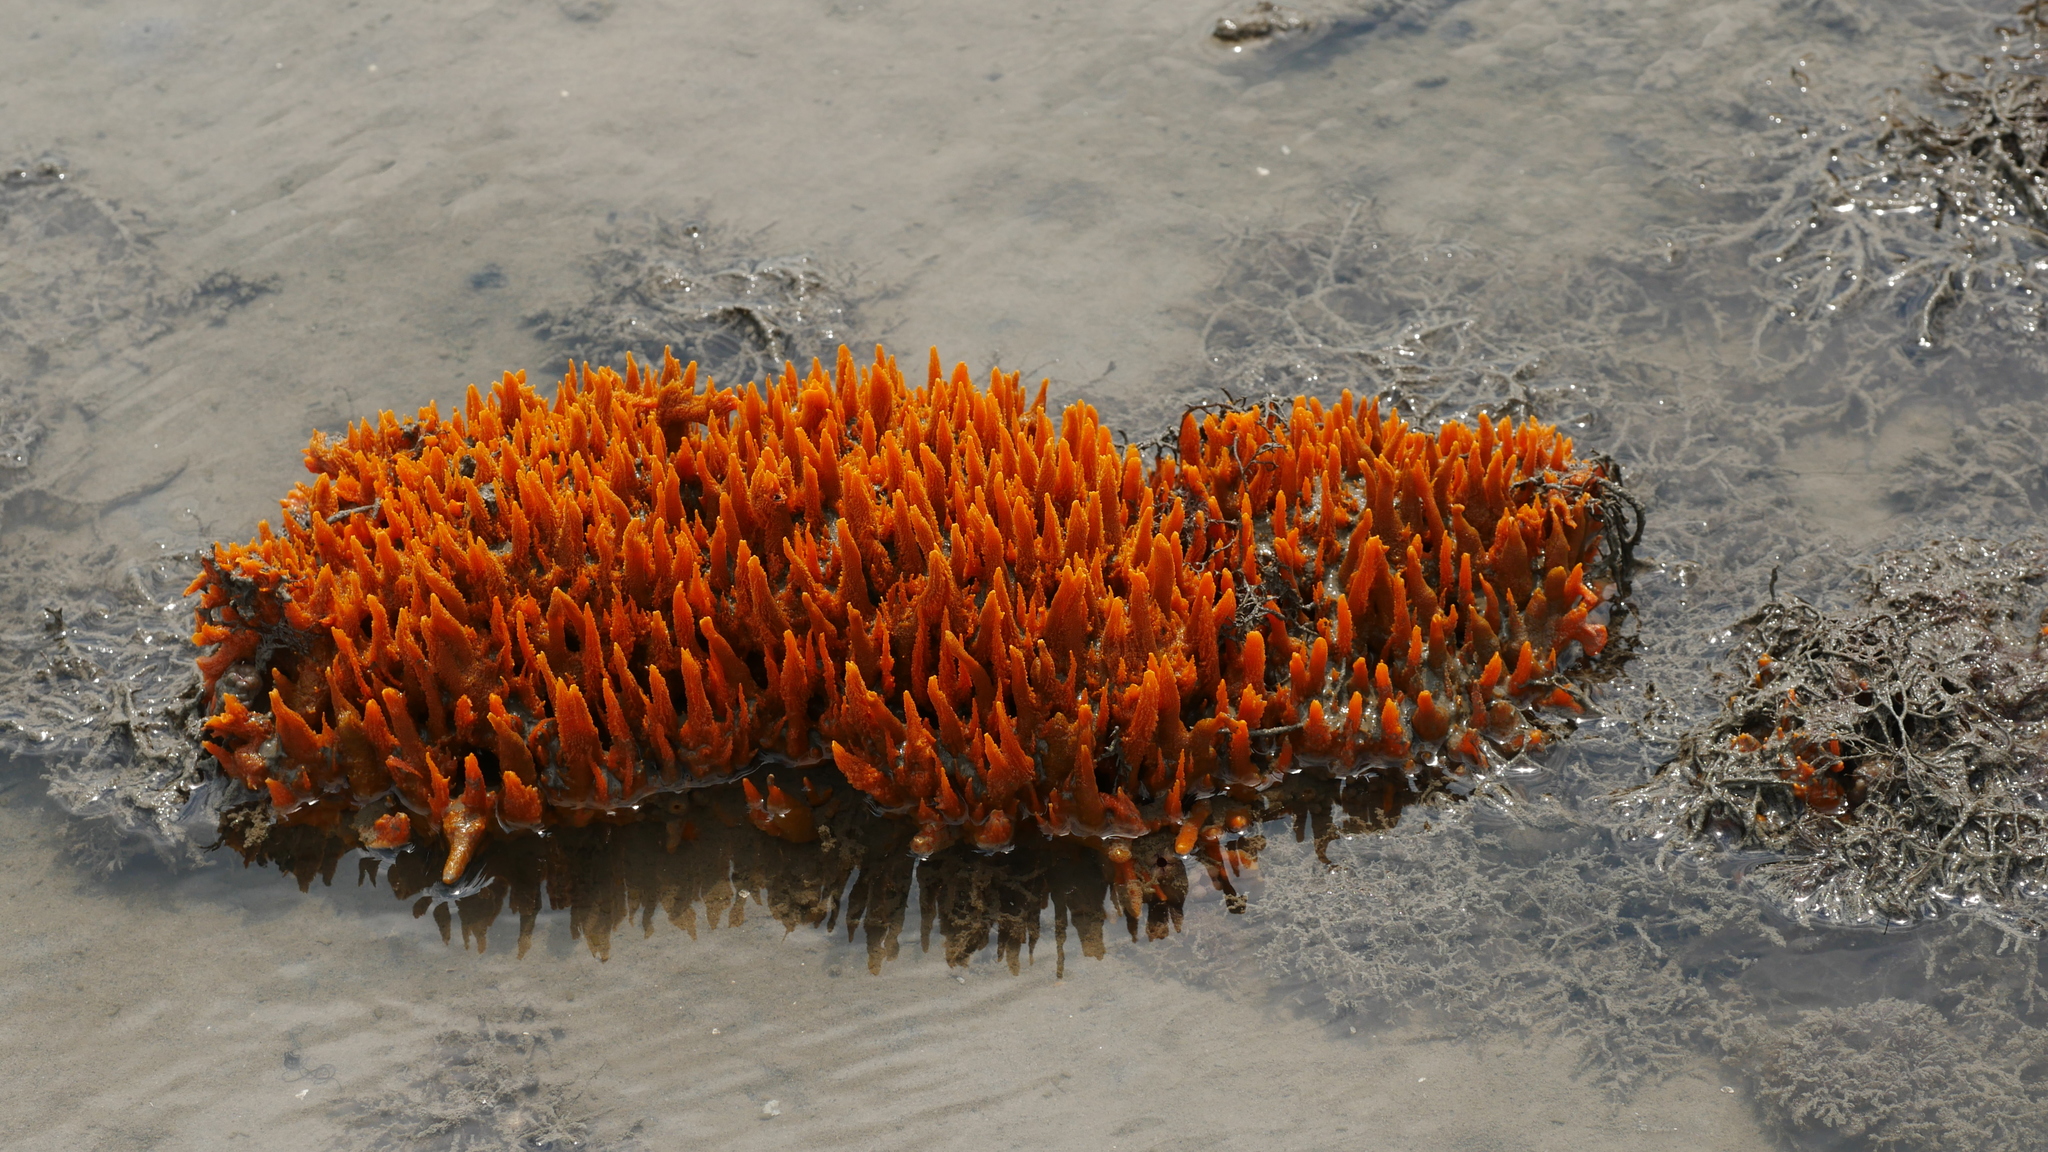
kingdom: Animalia
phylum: Porifera
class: Demospongiae
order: Suberitida
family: Halichondriidae
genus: Hymeniacidon
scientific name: Hymeniacidon heliophila
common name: Diurnal horny sponge
